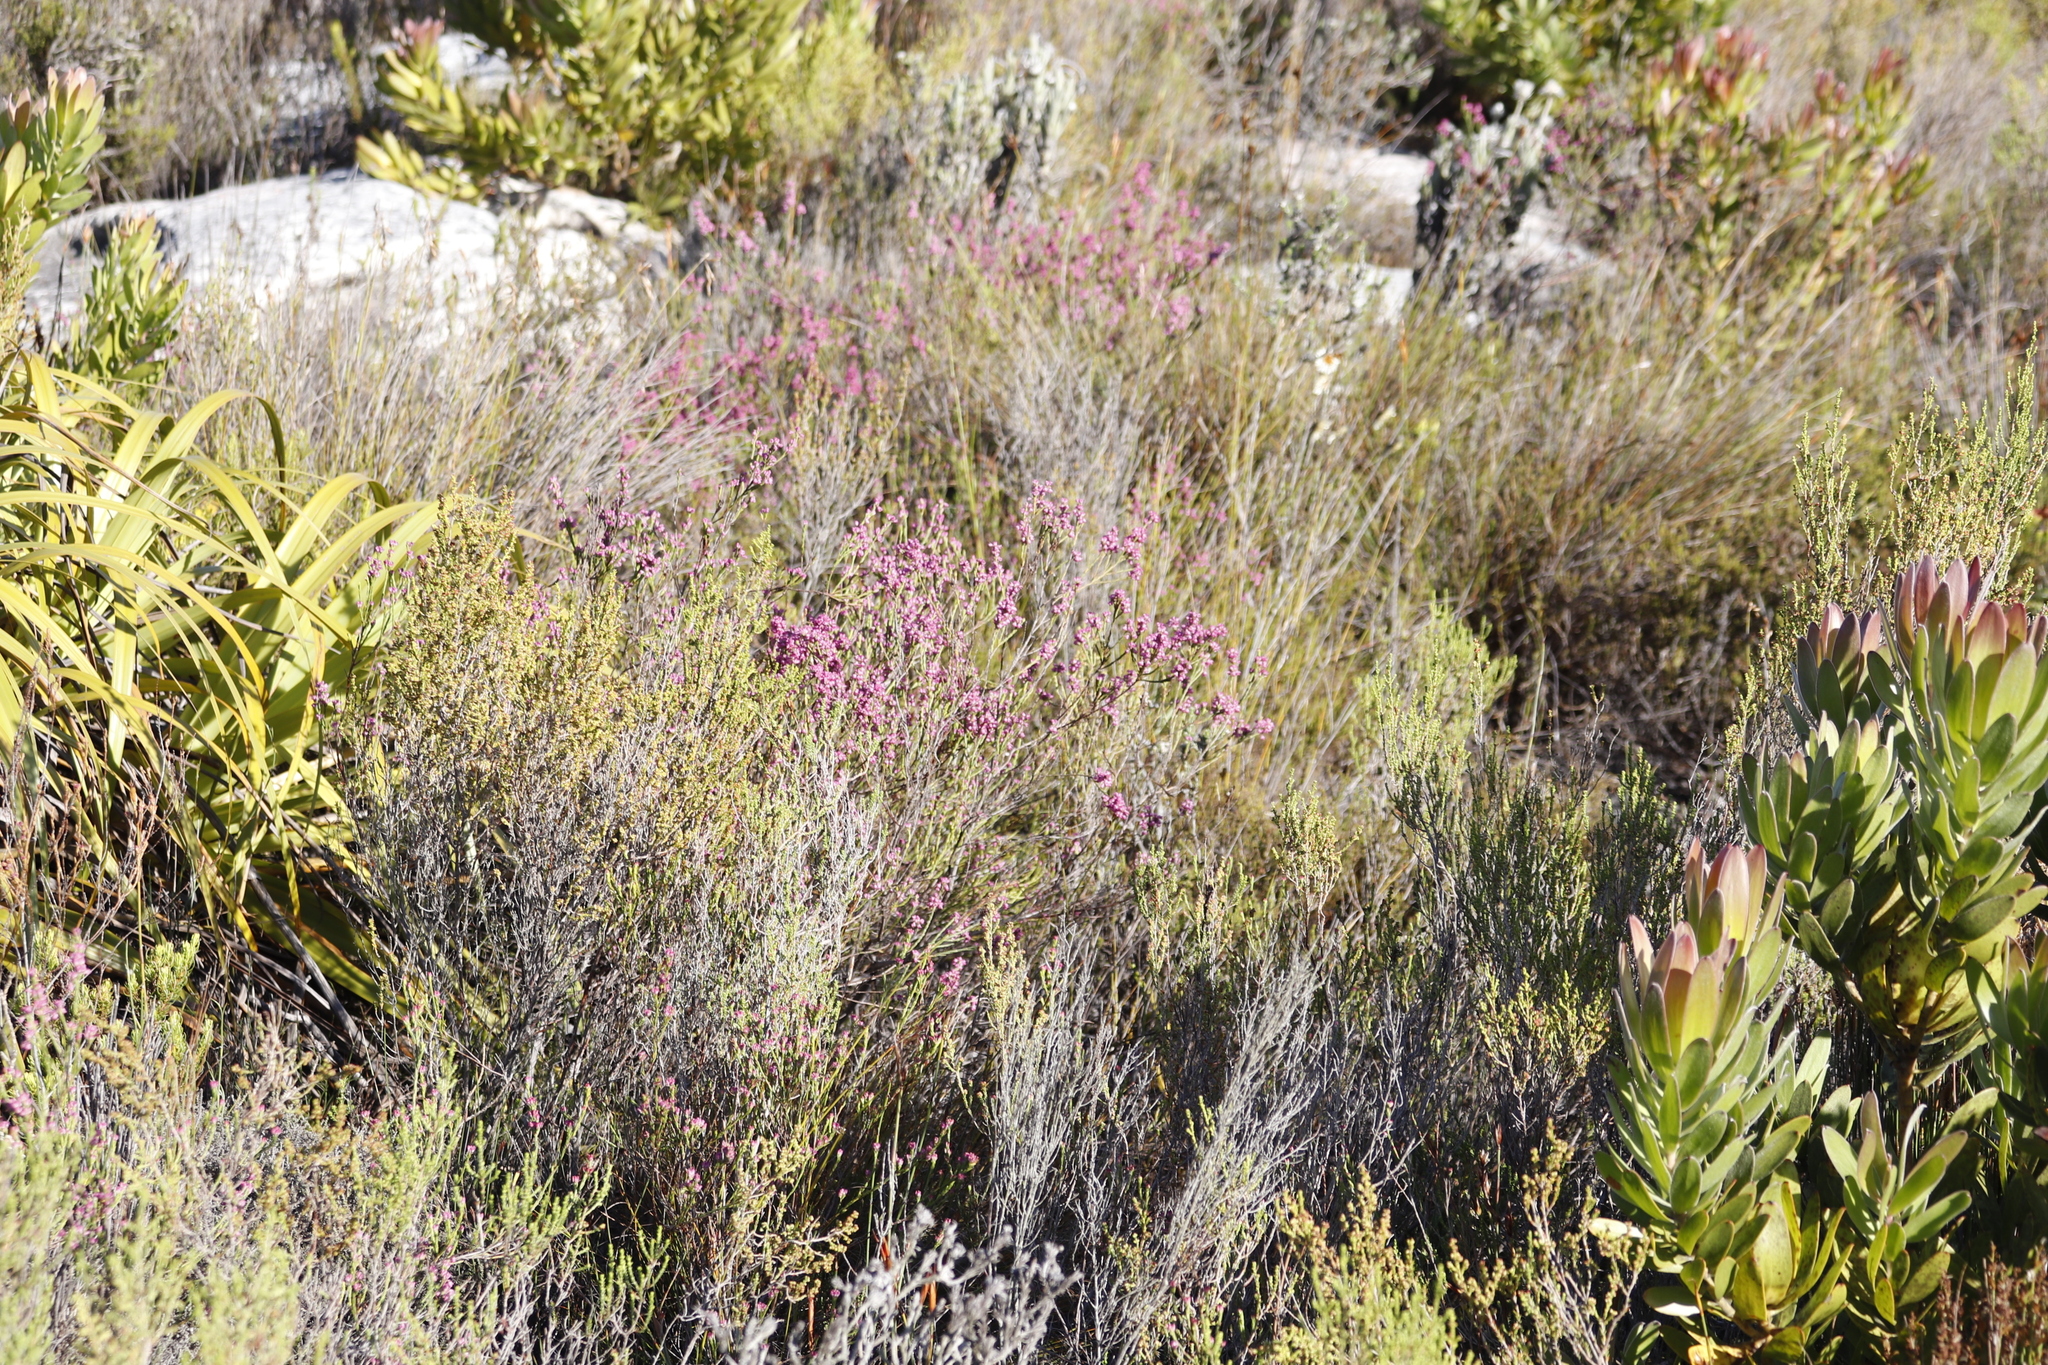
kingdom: Plantae
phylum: Tracheophyta
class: Magnoliopsida
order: Ericales
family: Ericaceae
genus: Erica
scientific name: Erica corifolia
